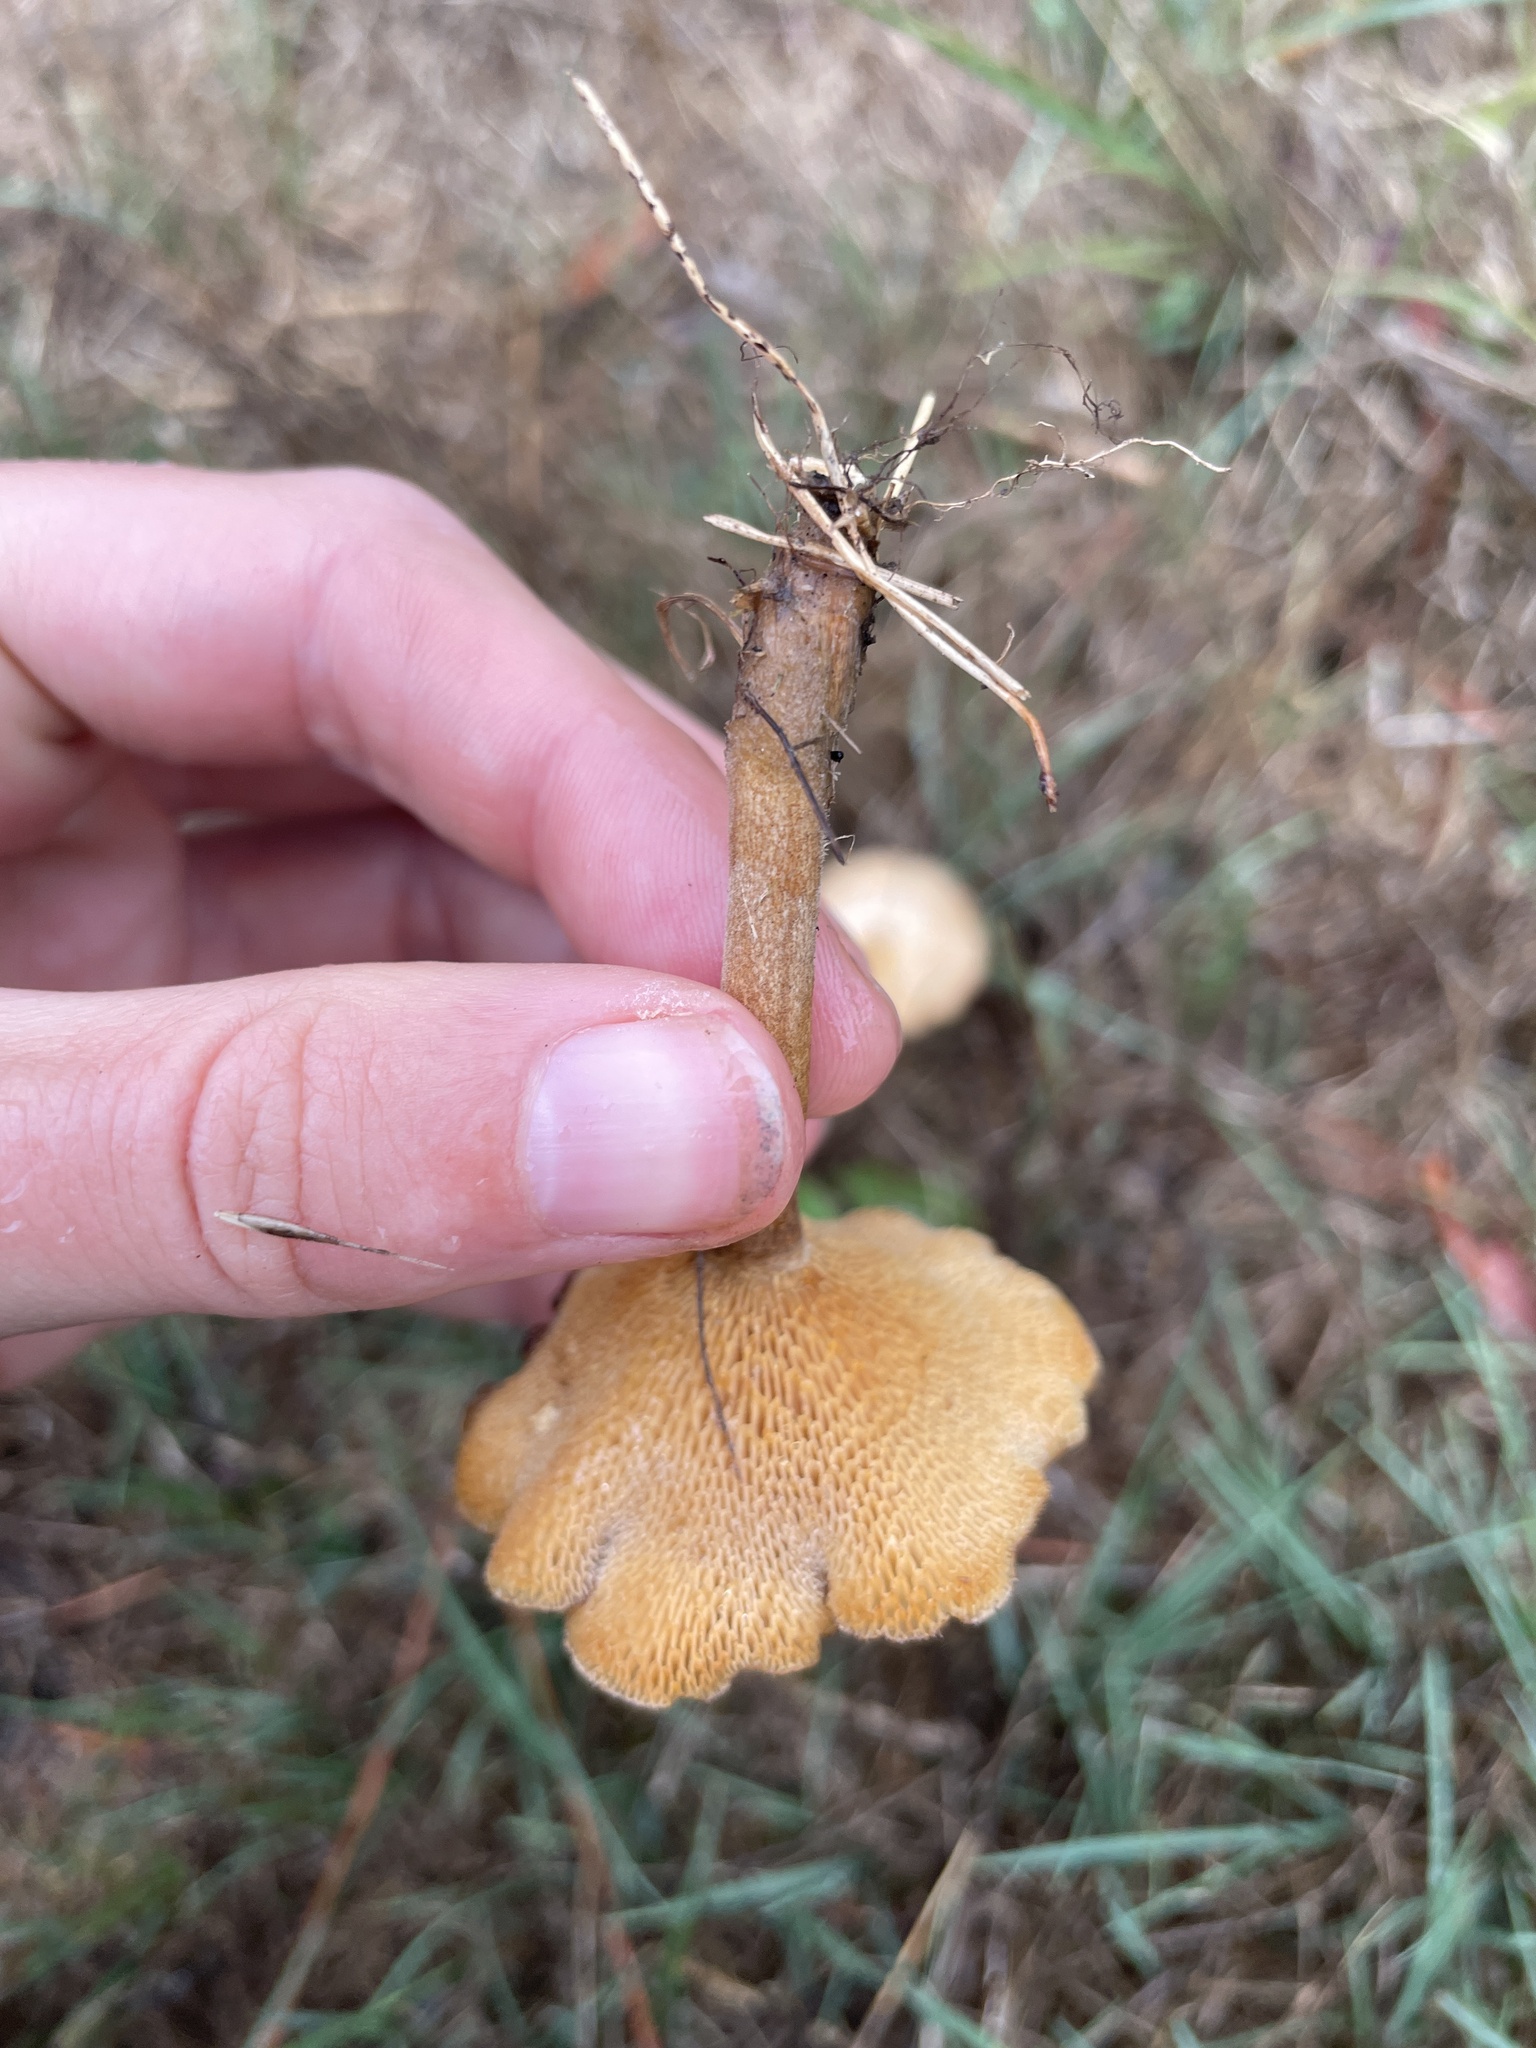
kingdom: Fungi
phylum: Basidiomycota
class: Agaricomycetes
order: Polyporales
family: Polyporaceae
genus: Lentinus
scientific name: Lentinus arcularius
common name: Spring polypore
